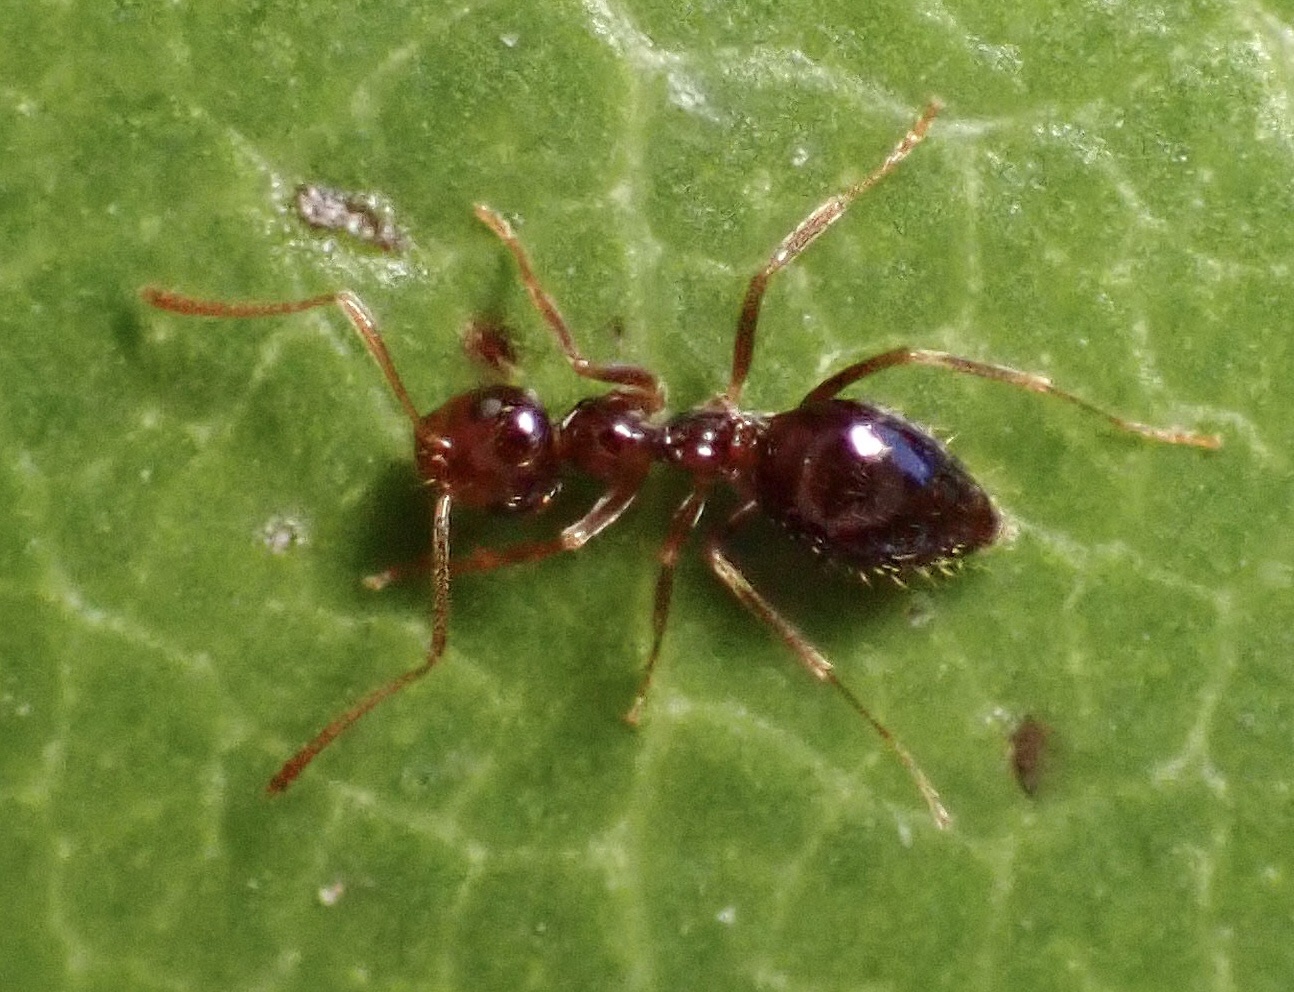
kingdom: Animalia
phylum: Arthropoda
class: Insecta
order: Hymenoptera
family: Formicidae
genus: Prenolepis
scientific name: Prenolepis imparis
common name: Small honey ant
